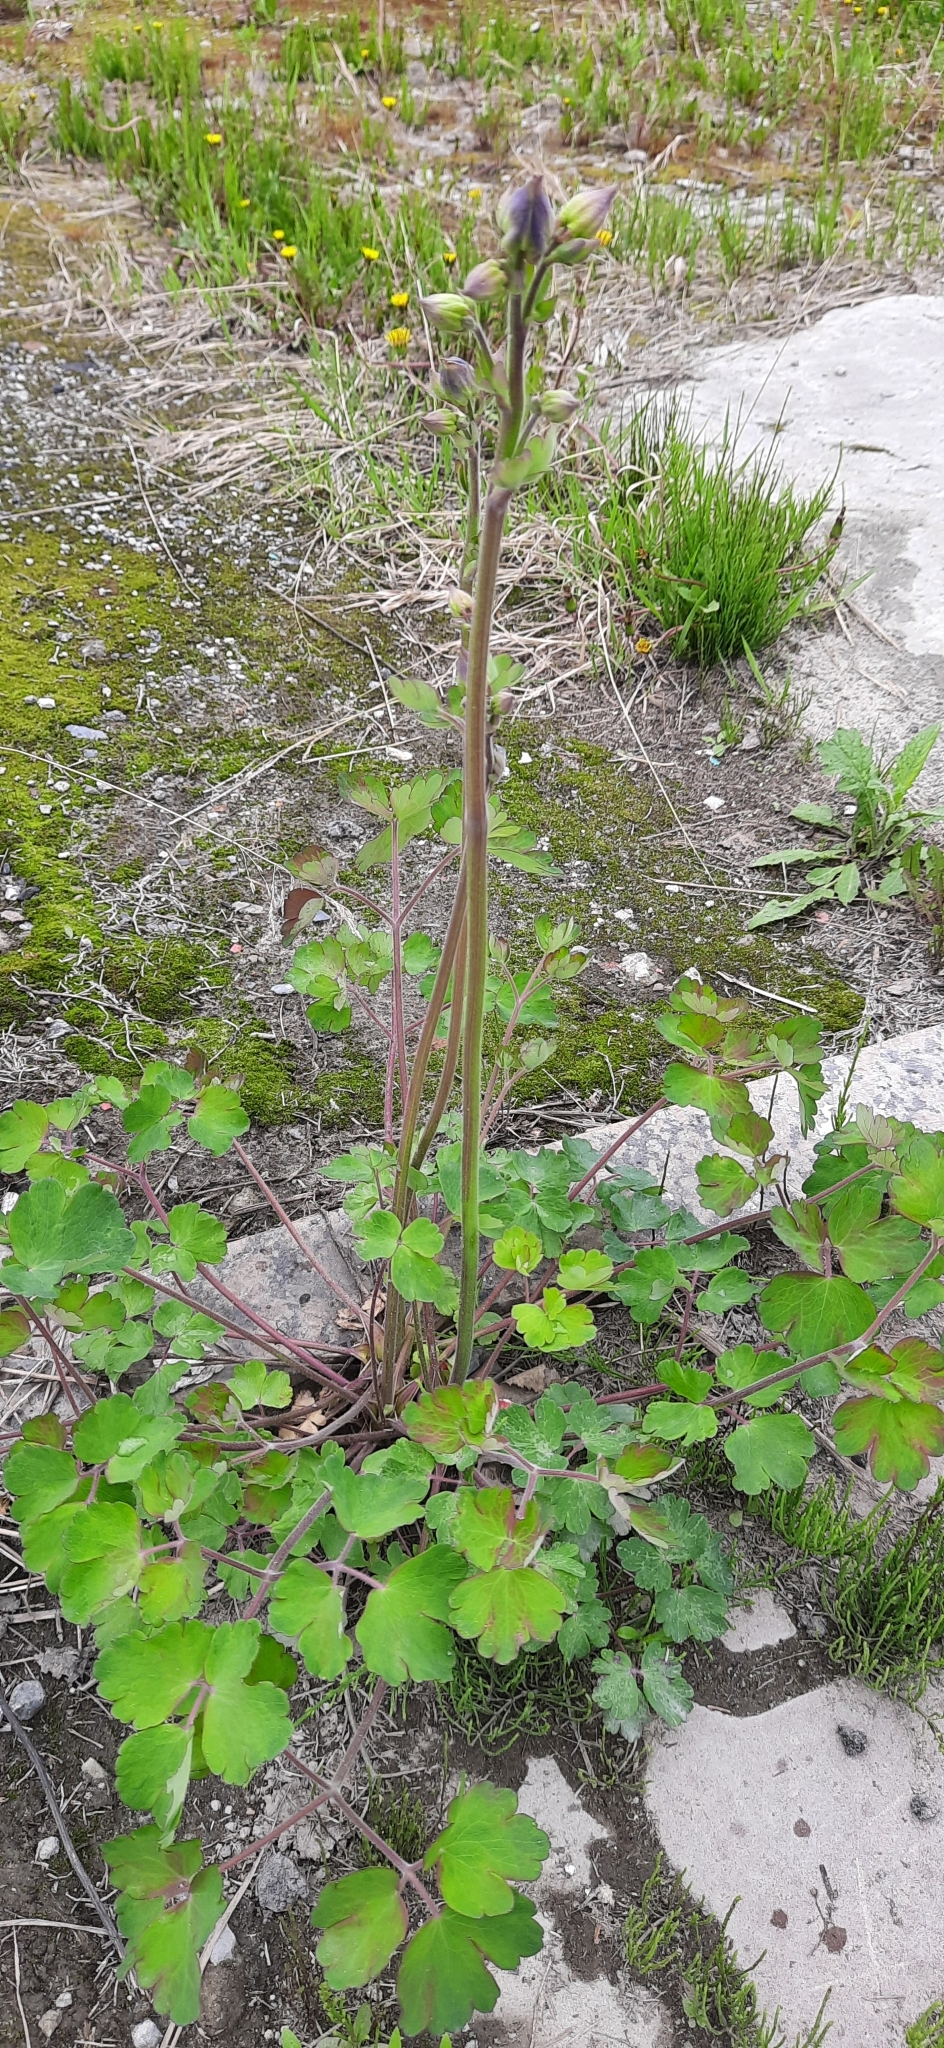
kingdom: Plantae
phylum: Tracheophyta
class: Magnoliopsida
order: Ranunculales
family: Ranunculaceae
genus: Aquilegia
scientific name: Aquilegia vulgaris
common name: Columbine
